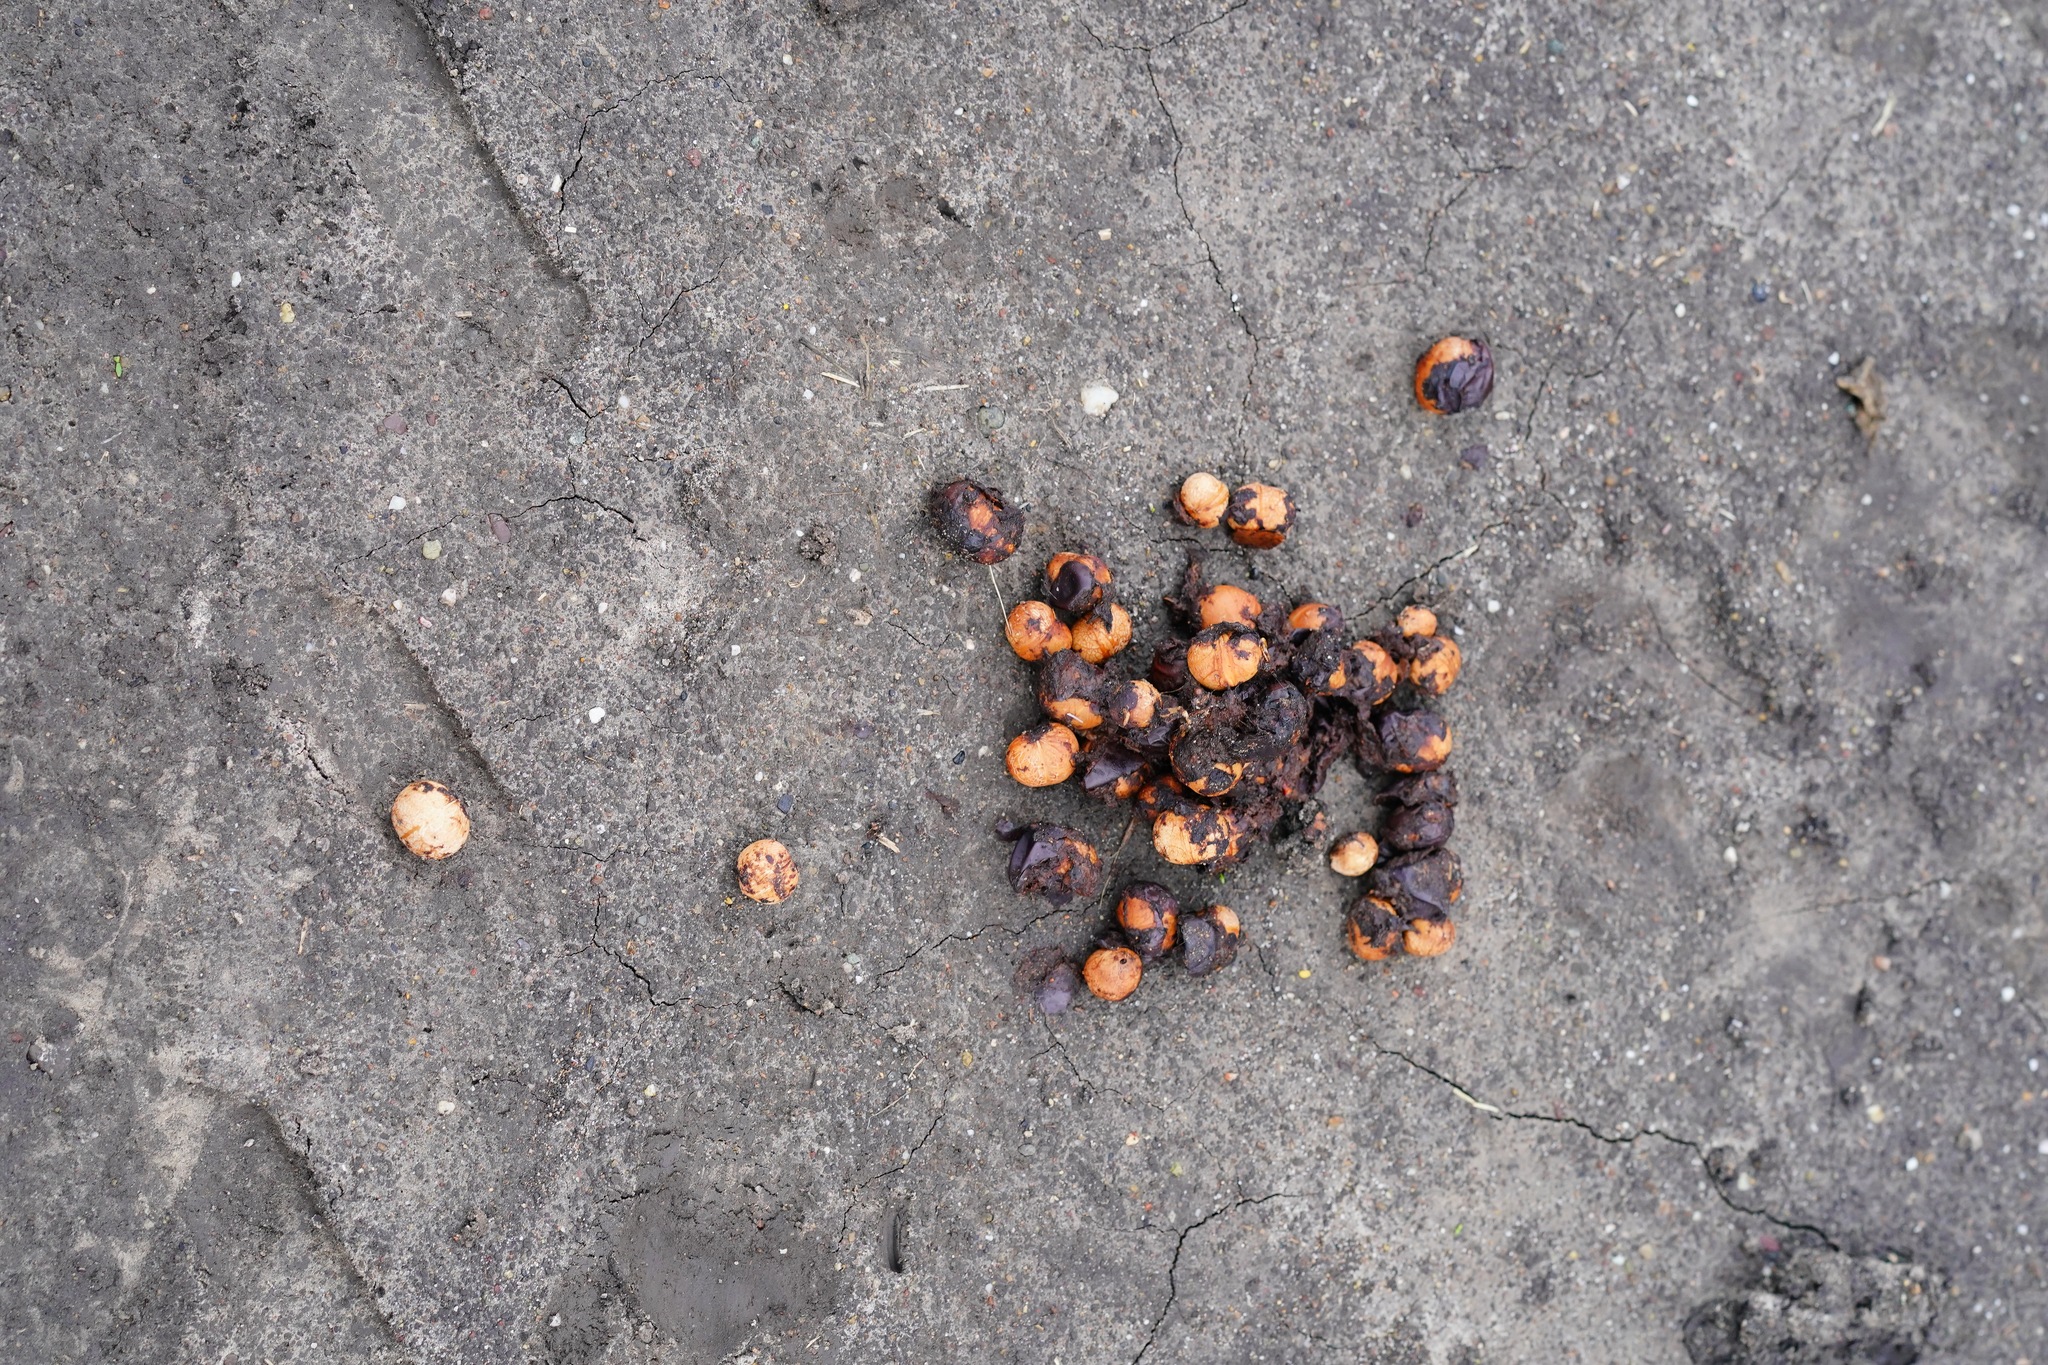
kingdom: Animalia
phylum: Chordata
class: Mammalia
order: Carnivora
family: Canidae
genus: Canis
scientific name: Canis latrans
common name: Coyote
